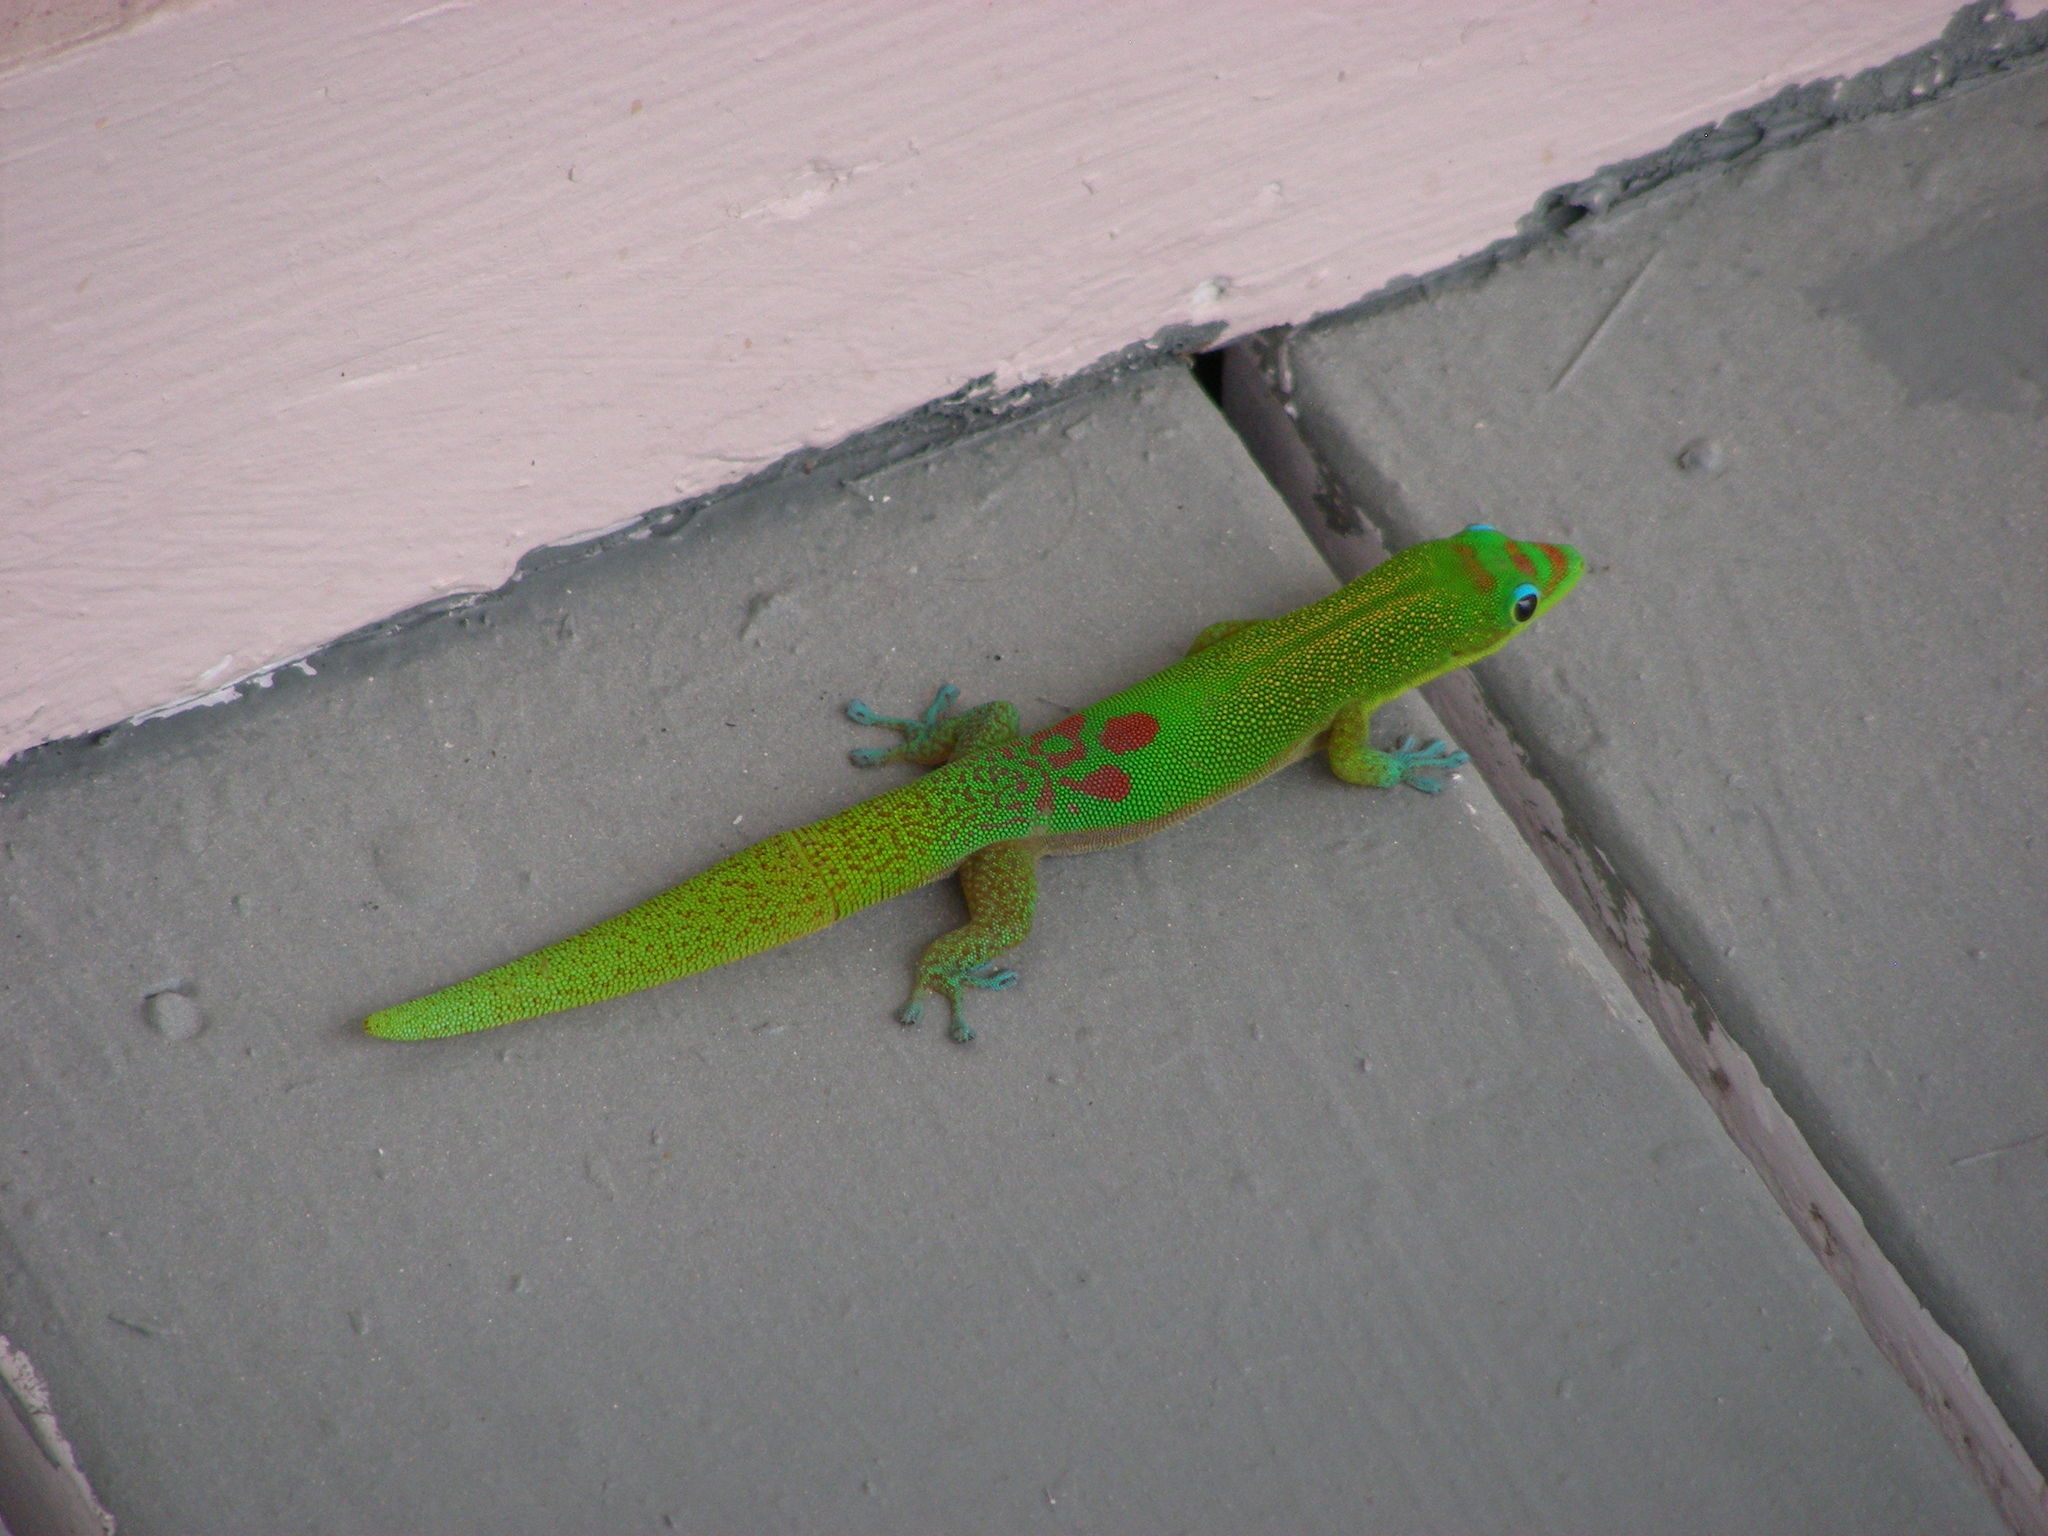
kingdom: Animalia
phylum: Chordata
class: Squamata
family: Gekkonidae
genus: Phelsuma
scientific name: Phelsuma laticauda
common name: Gold dust day gecko
